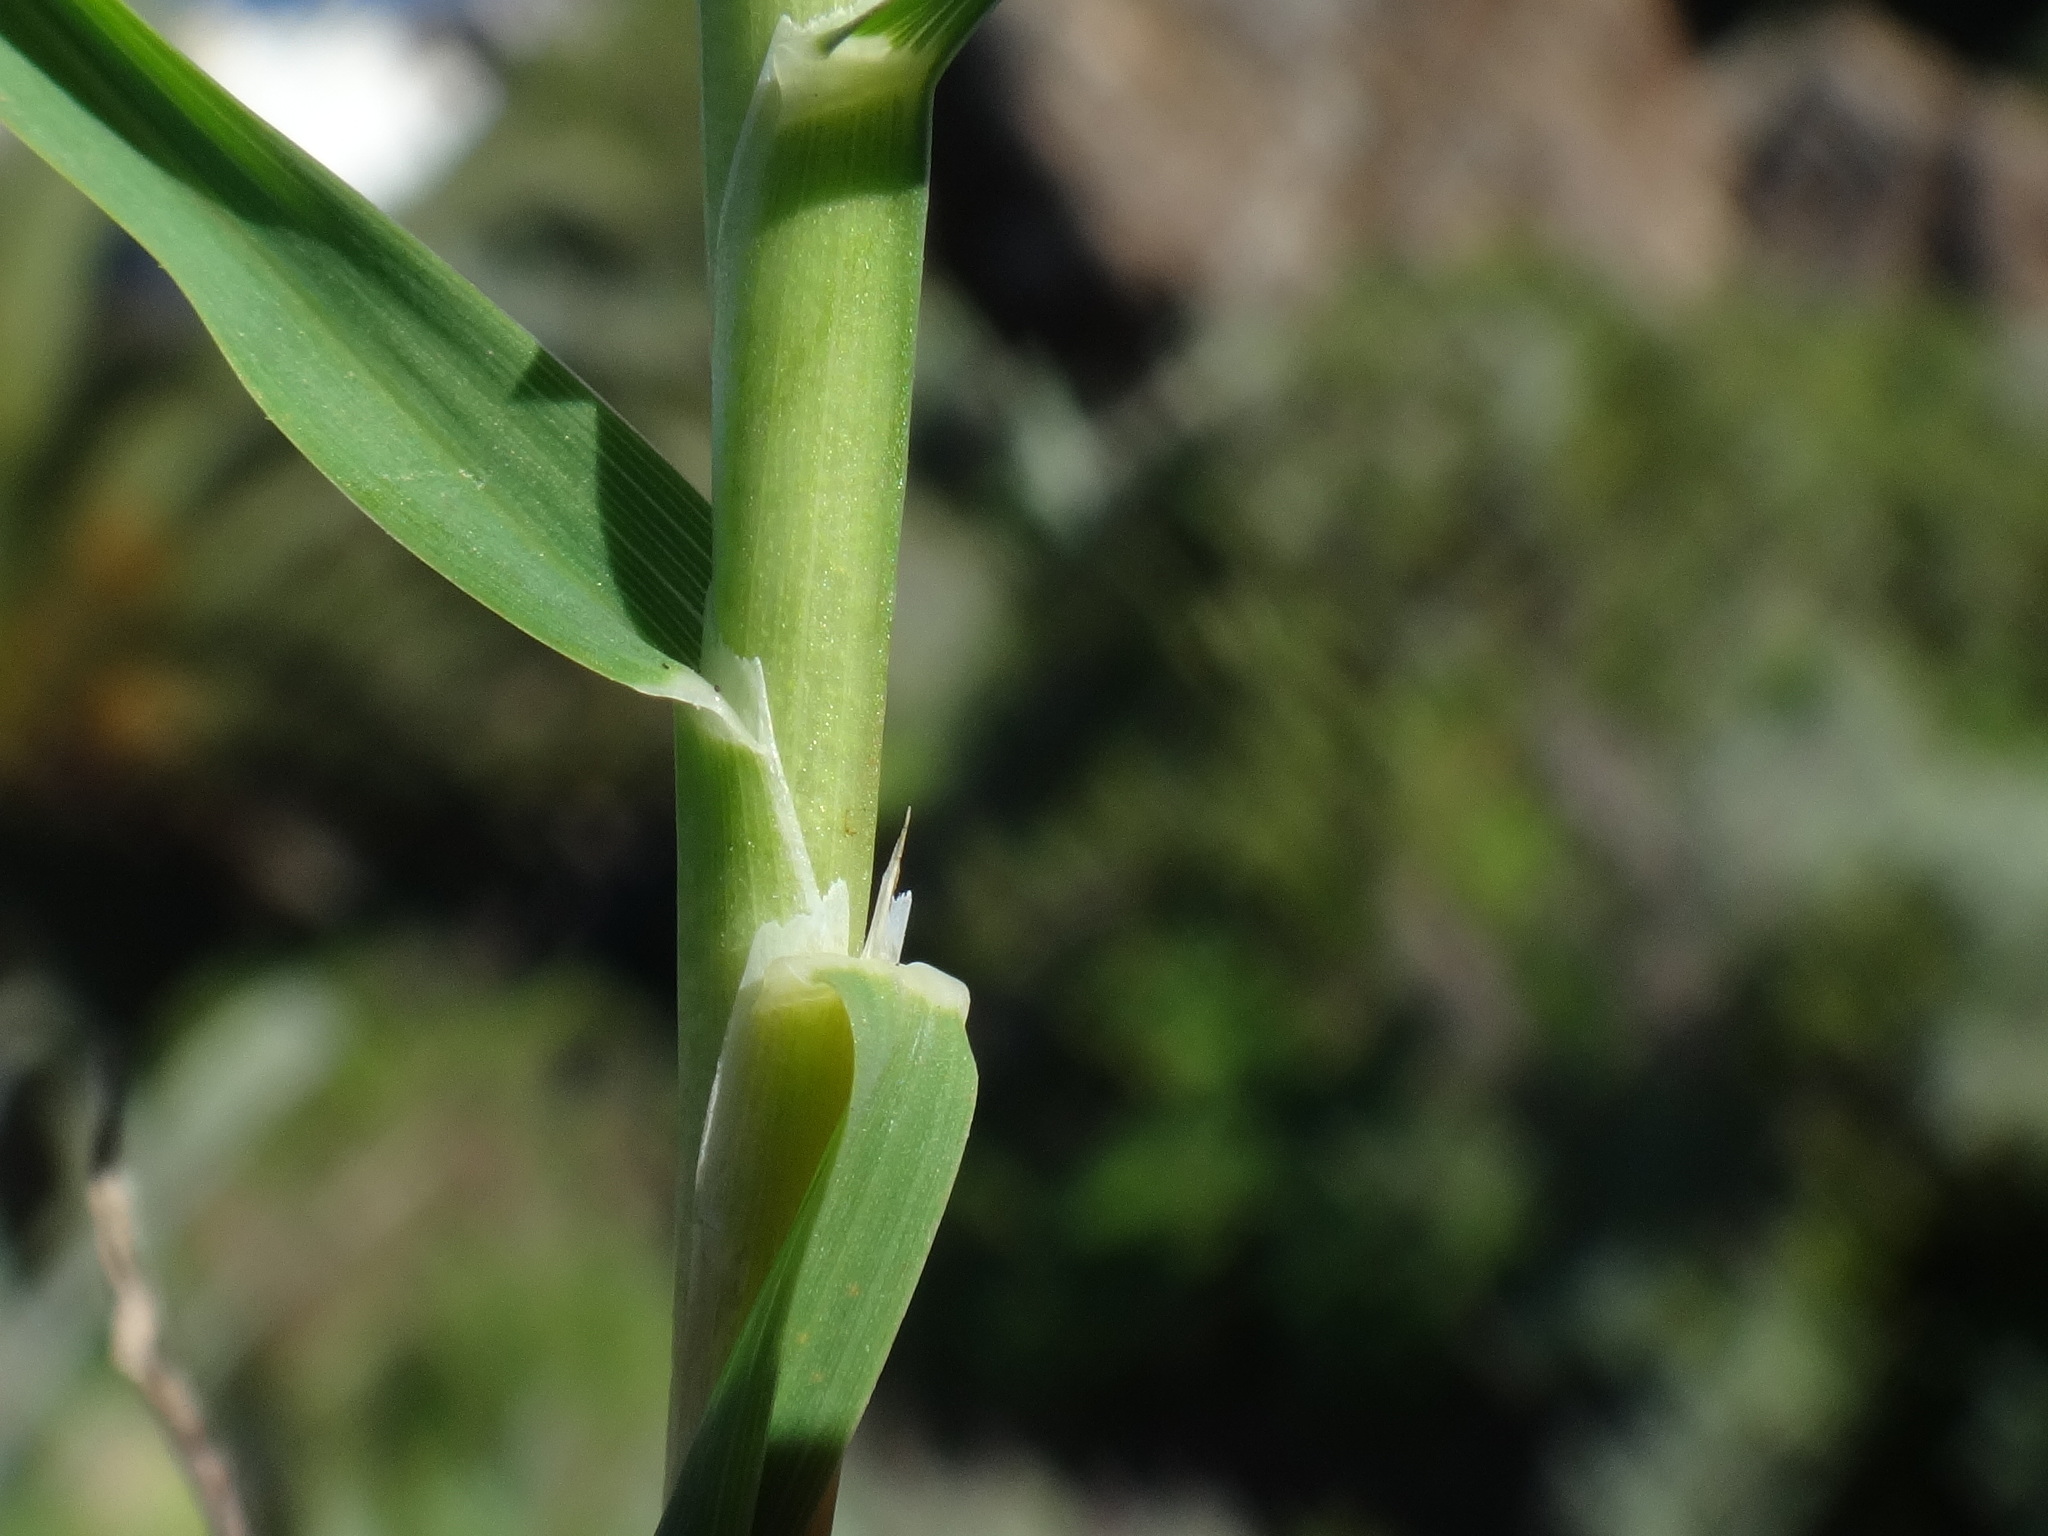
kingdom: Plantae
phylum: Tracheophyta
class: Liliopsida
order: Poales
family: Poaceae
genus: Dactylis
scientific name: Dactylis smithii
